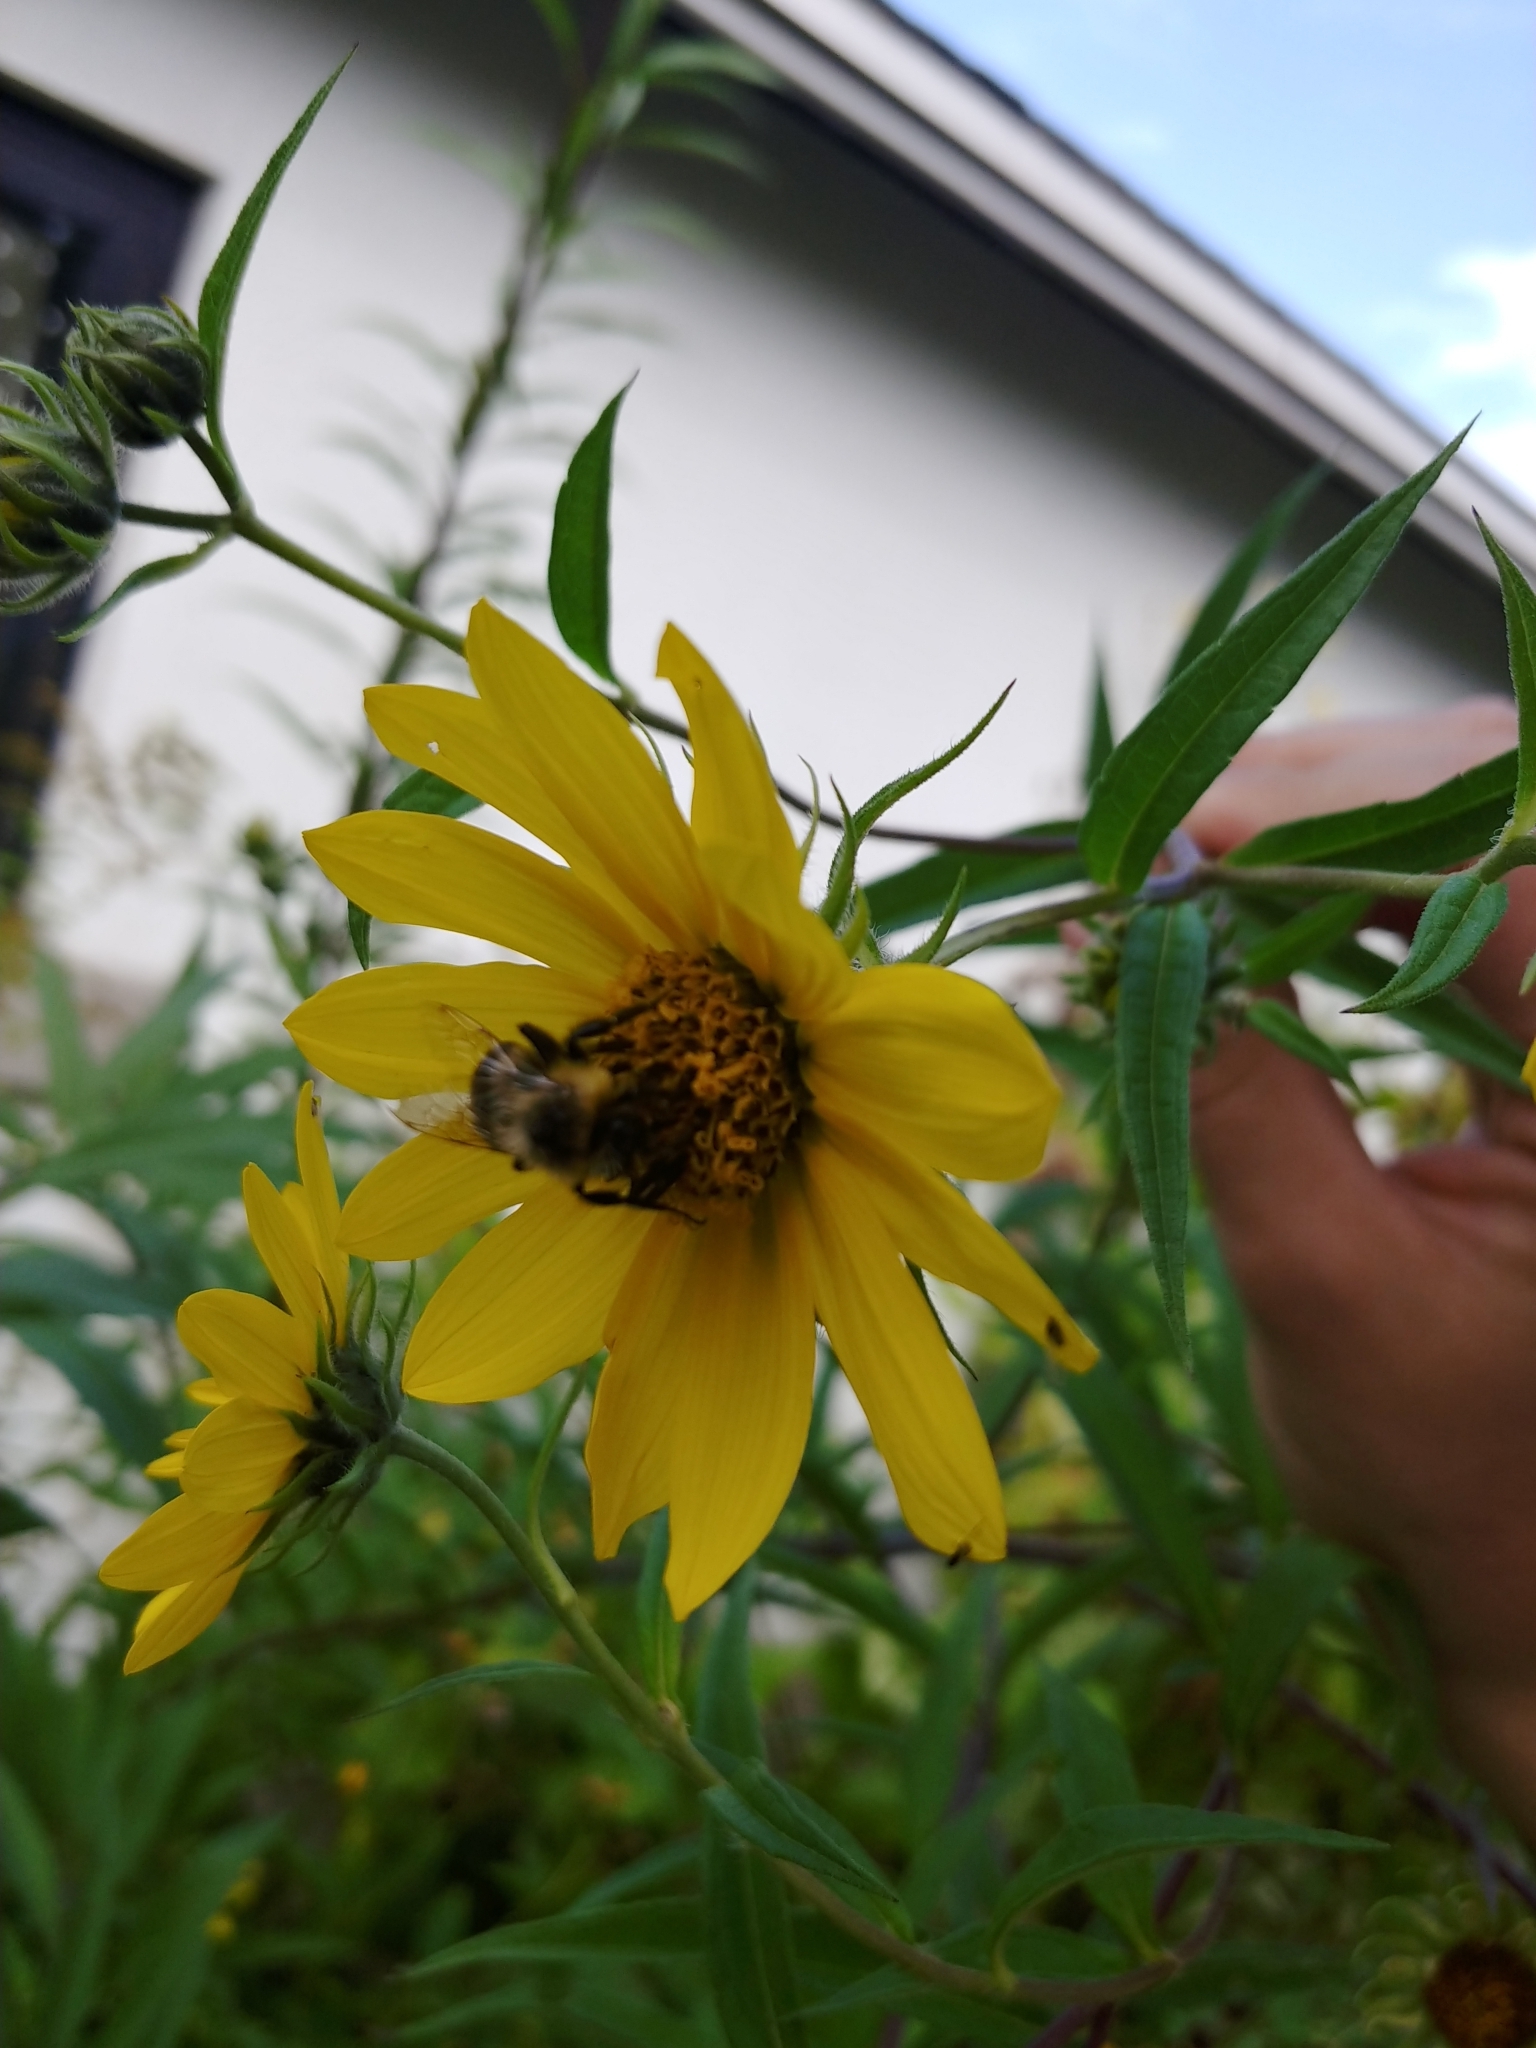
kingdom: Animalia
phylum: Arthropoda
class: Insecta
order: Hymenoptera
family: Apidae
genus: Bombus
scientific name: Bombus impatiens
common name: Common eastern bumble bee
